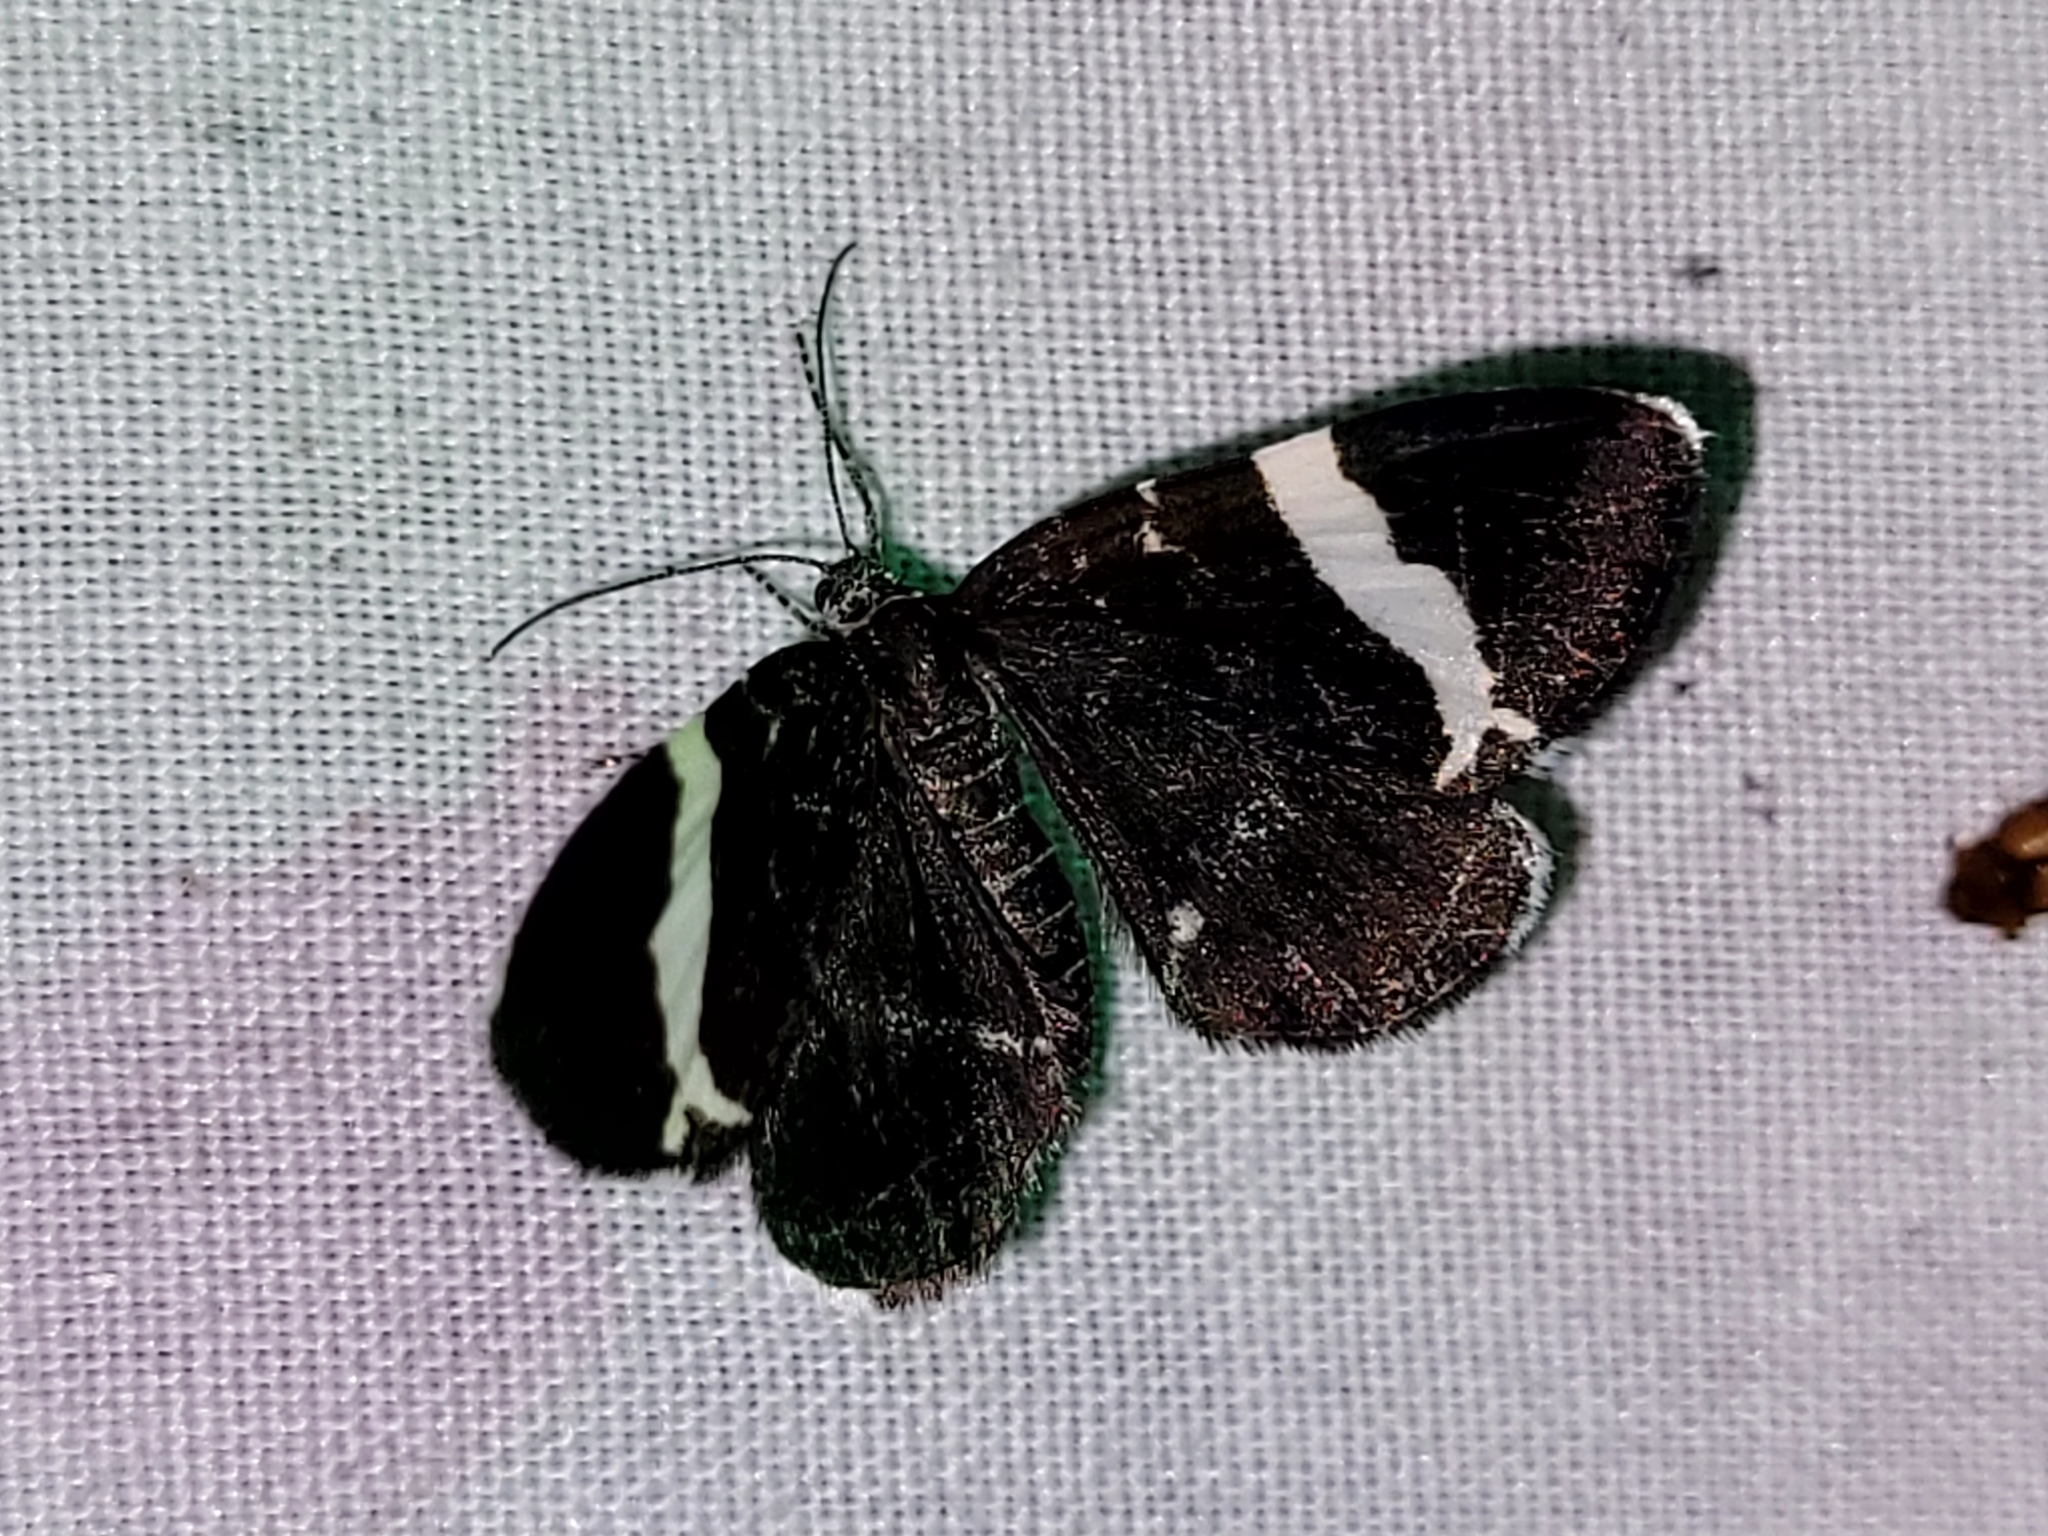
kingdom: Animalia
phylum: Arthropoda
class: Insecta
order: Lepidoptera
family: Geometridae
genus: Trichodezia
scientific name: Trichodezia albovittata
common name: White striped black
